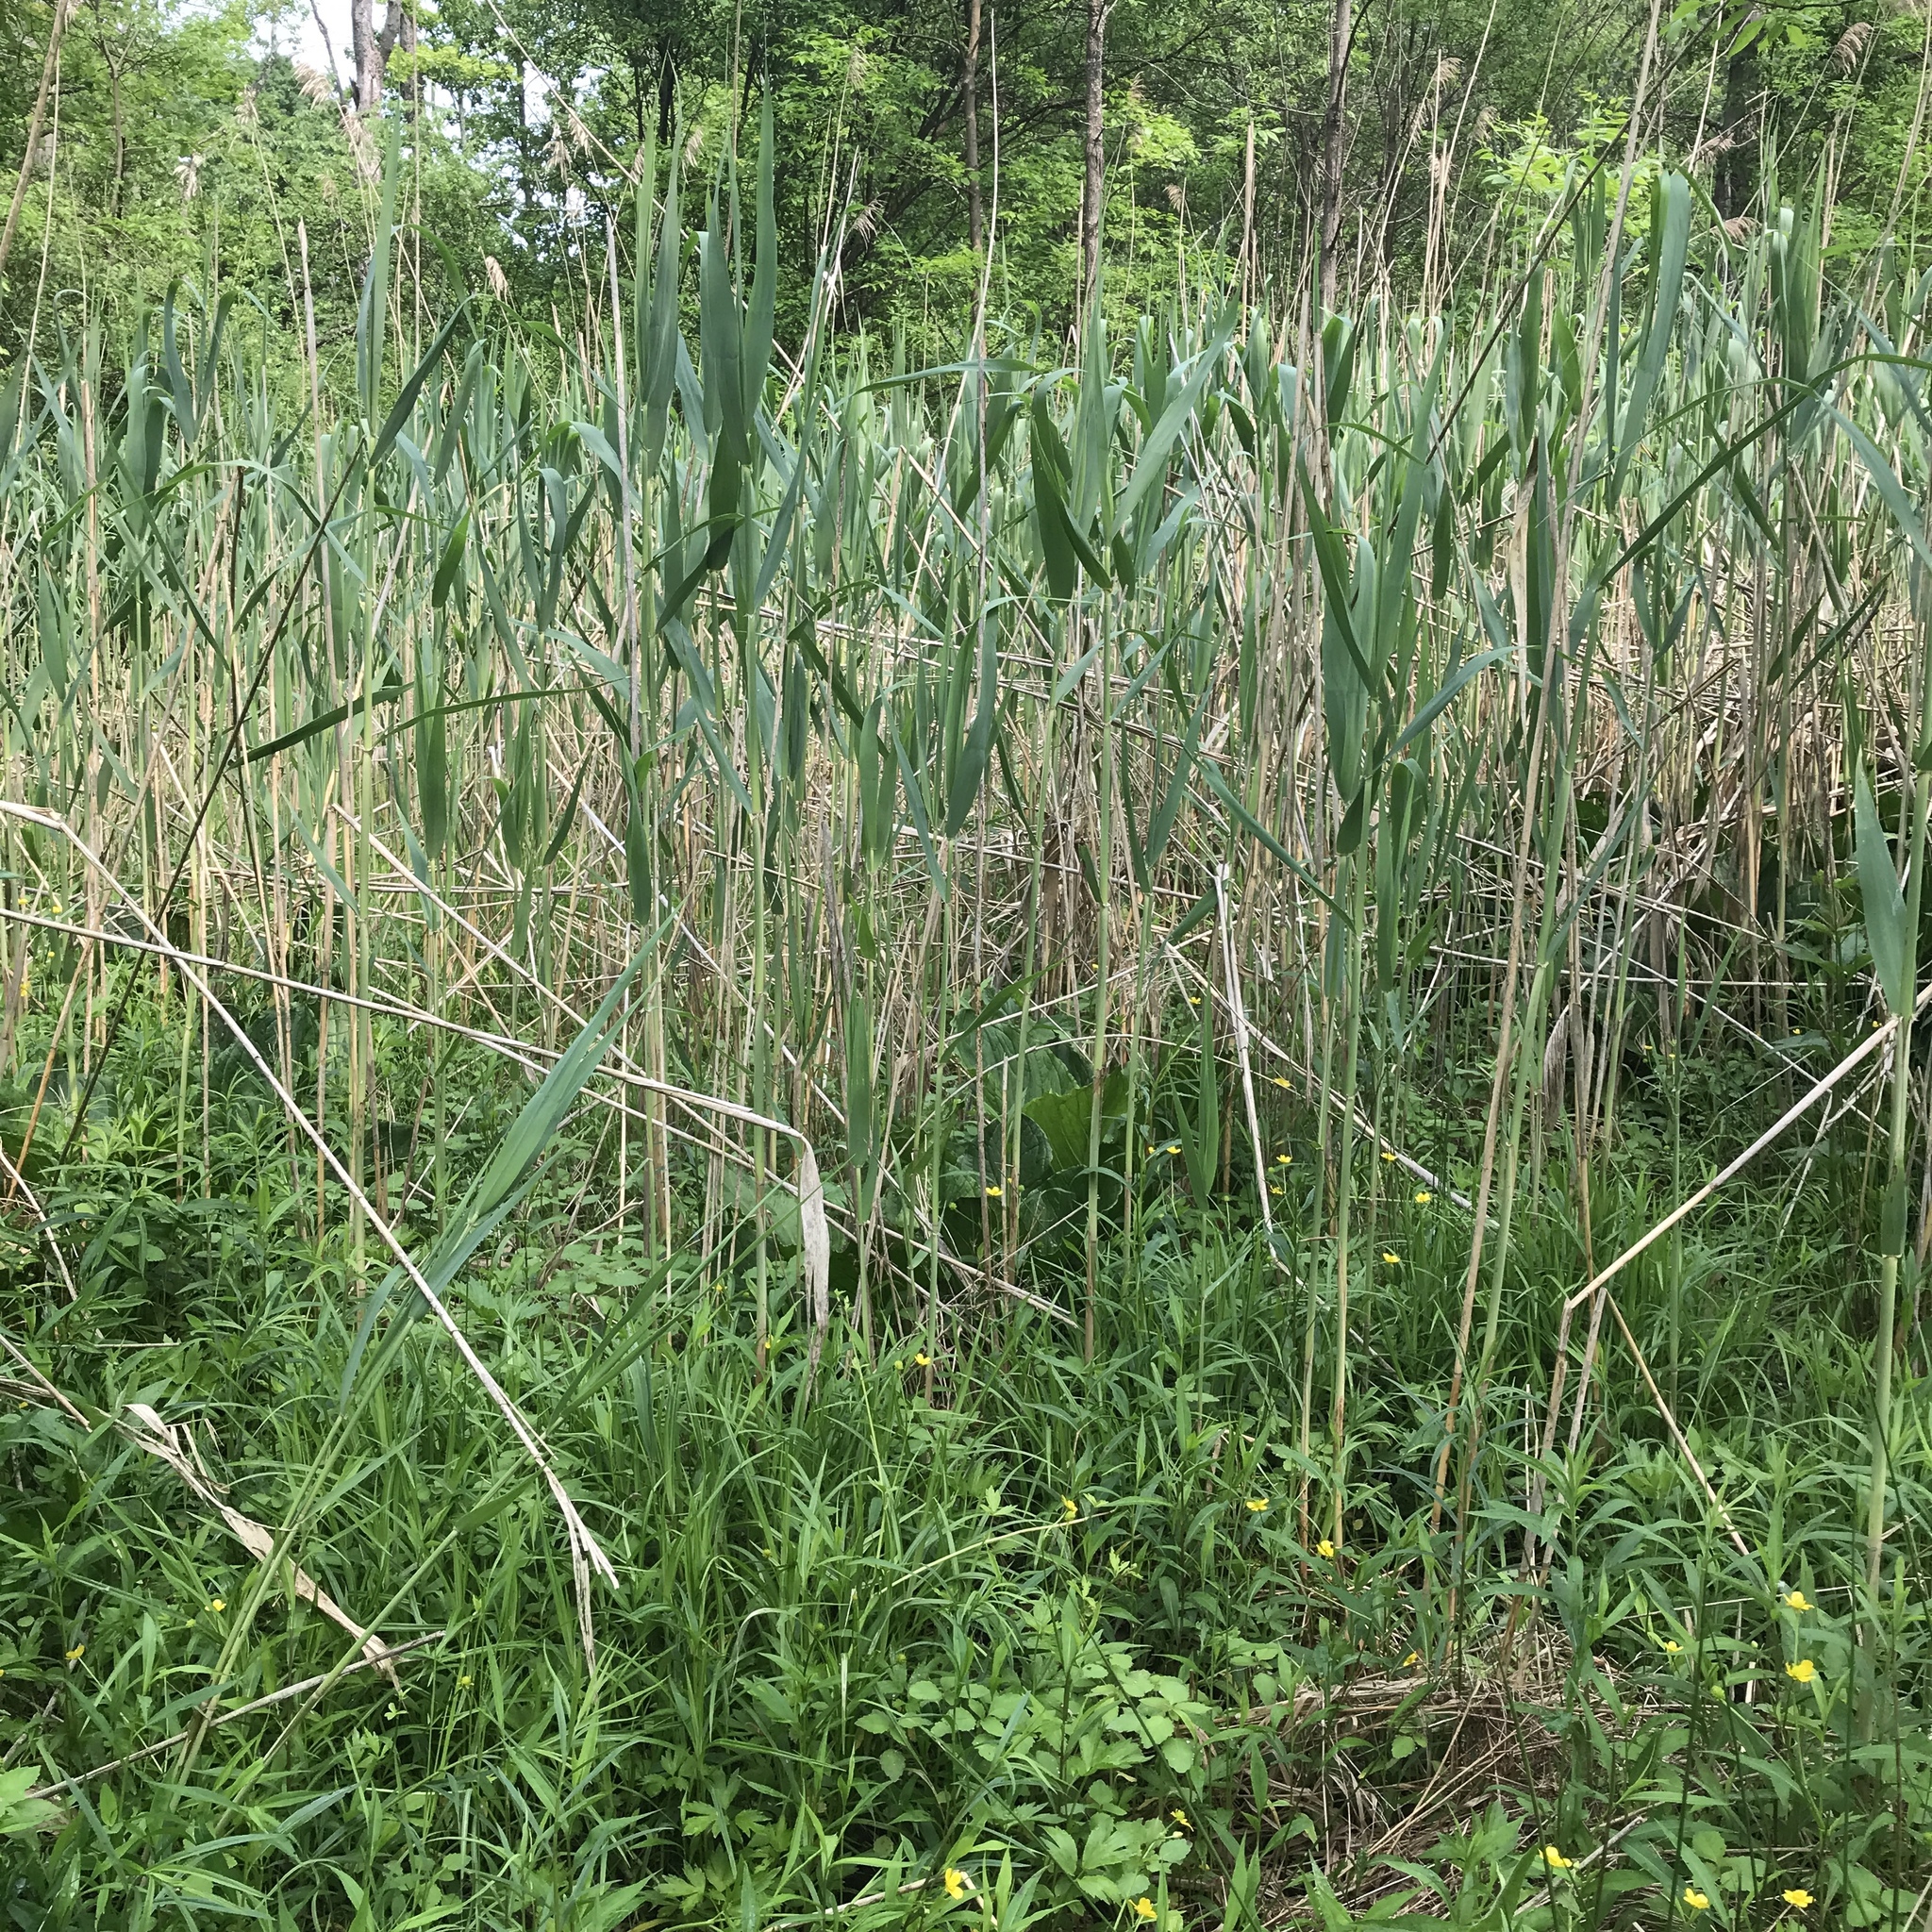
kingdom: Plantae
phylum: Tracheophyta
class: Liliopsida
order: Poales
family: Poaceae
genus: Phragmites
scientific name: Phragmites australis
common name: Common reed
